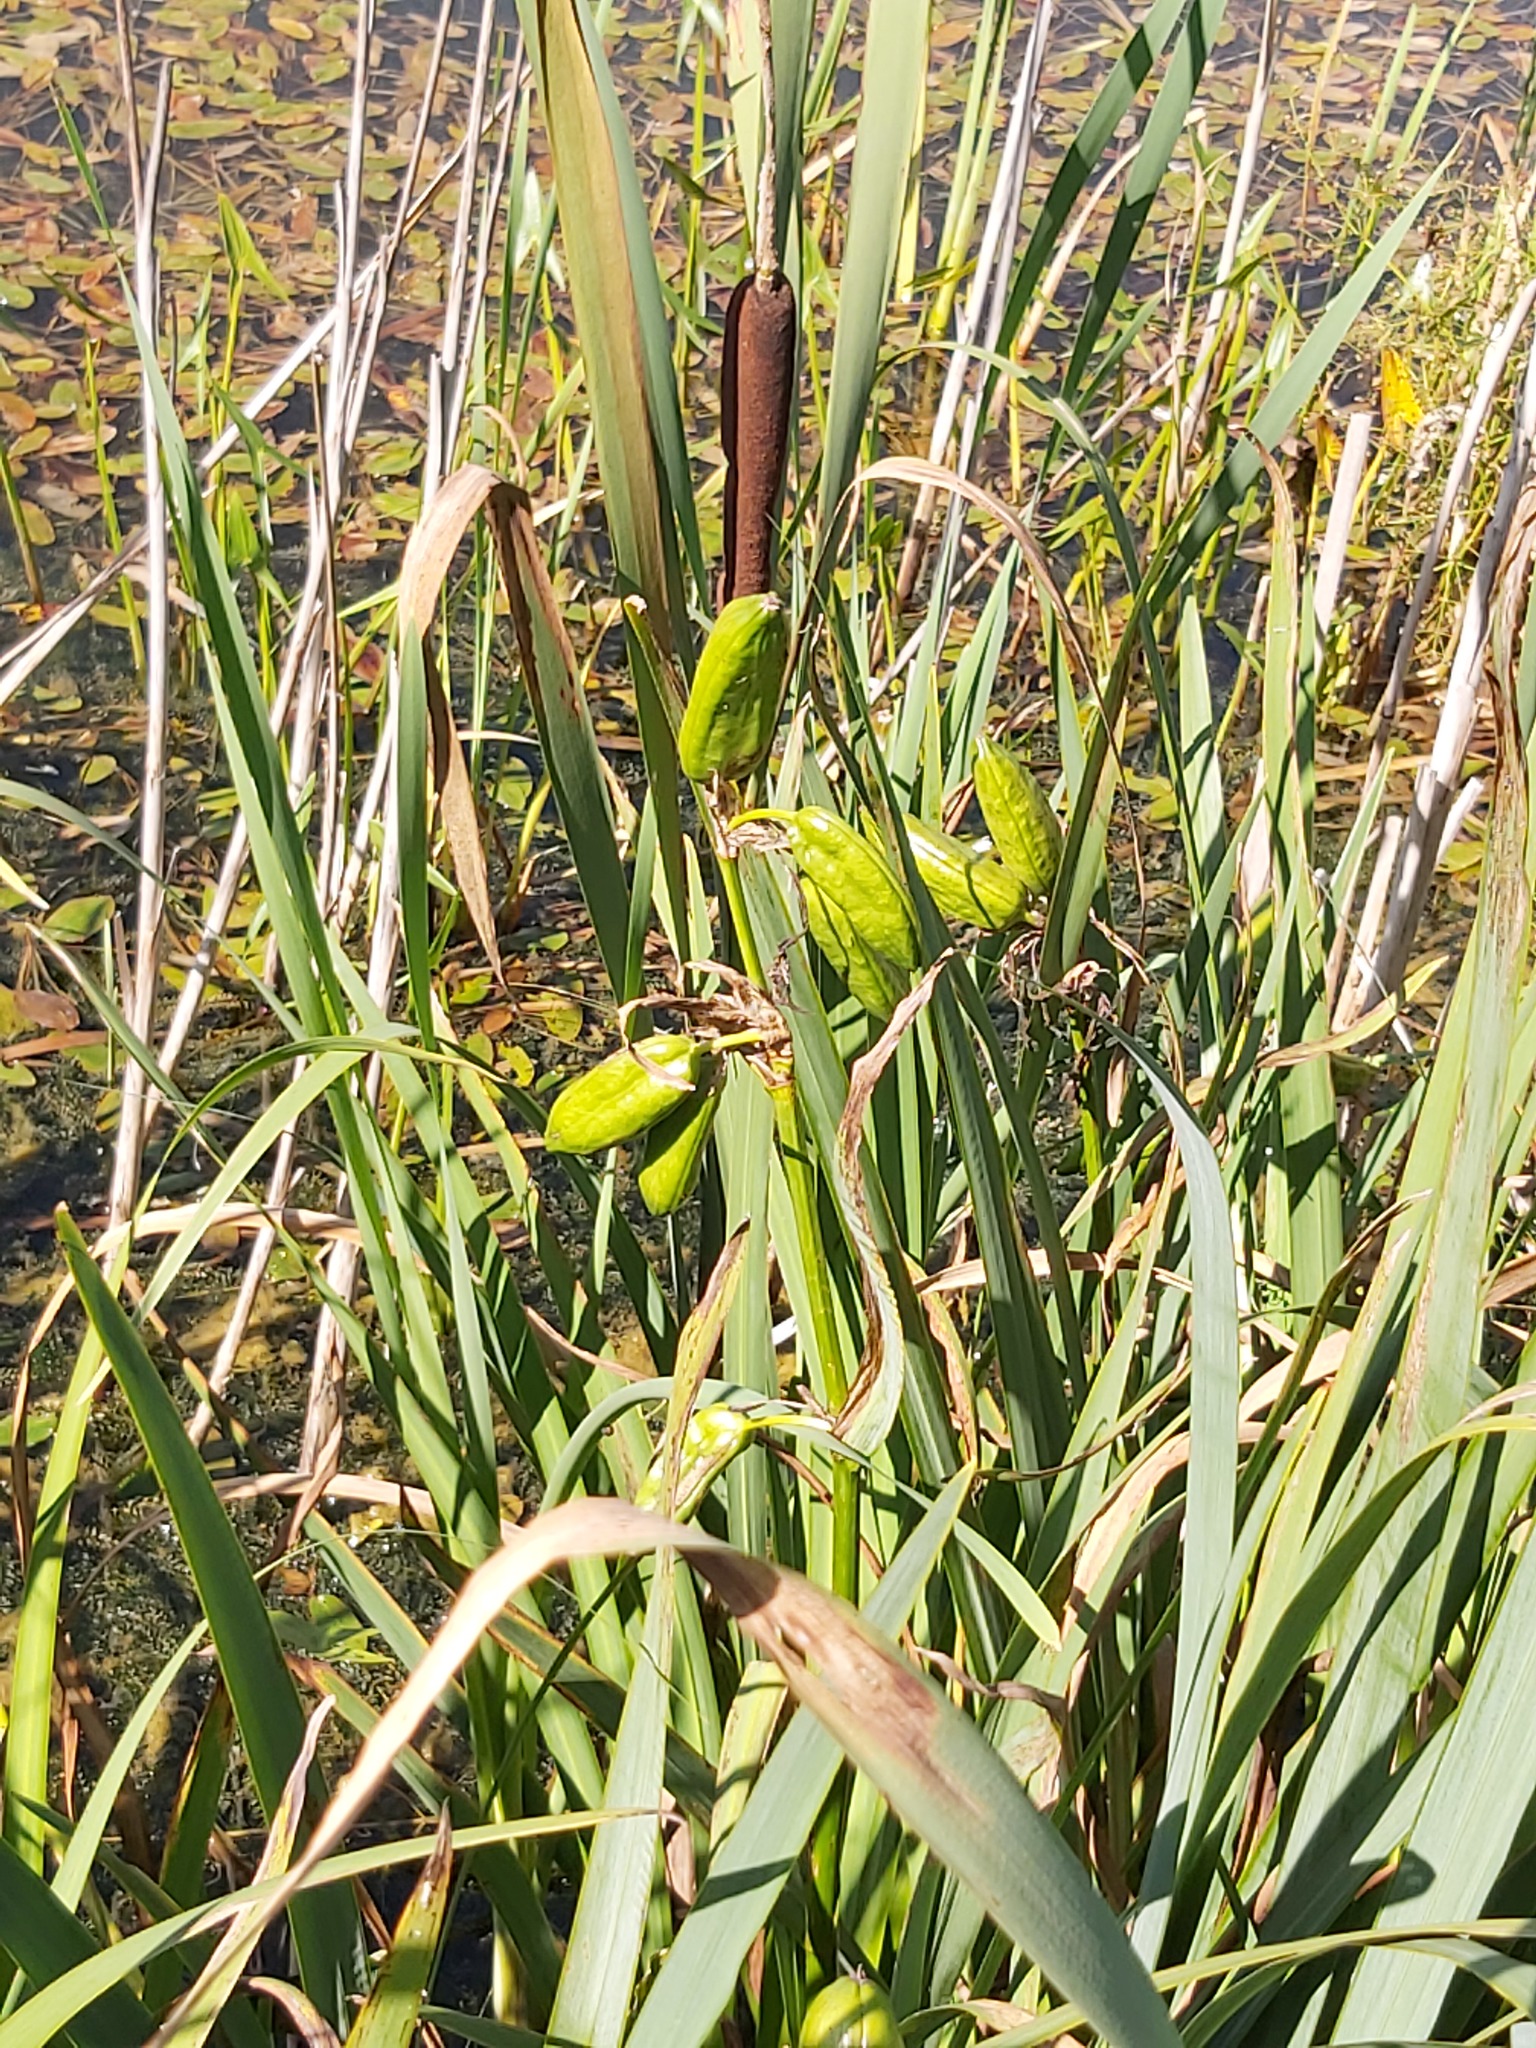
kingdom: Plantae
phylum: Tracheophyta
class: Liliopsida
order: Asparagales
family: Iridaceae
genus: Iris
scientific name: Iris pseudacorus
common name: Yellow flag
